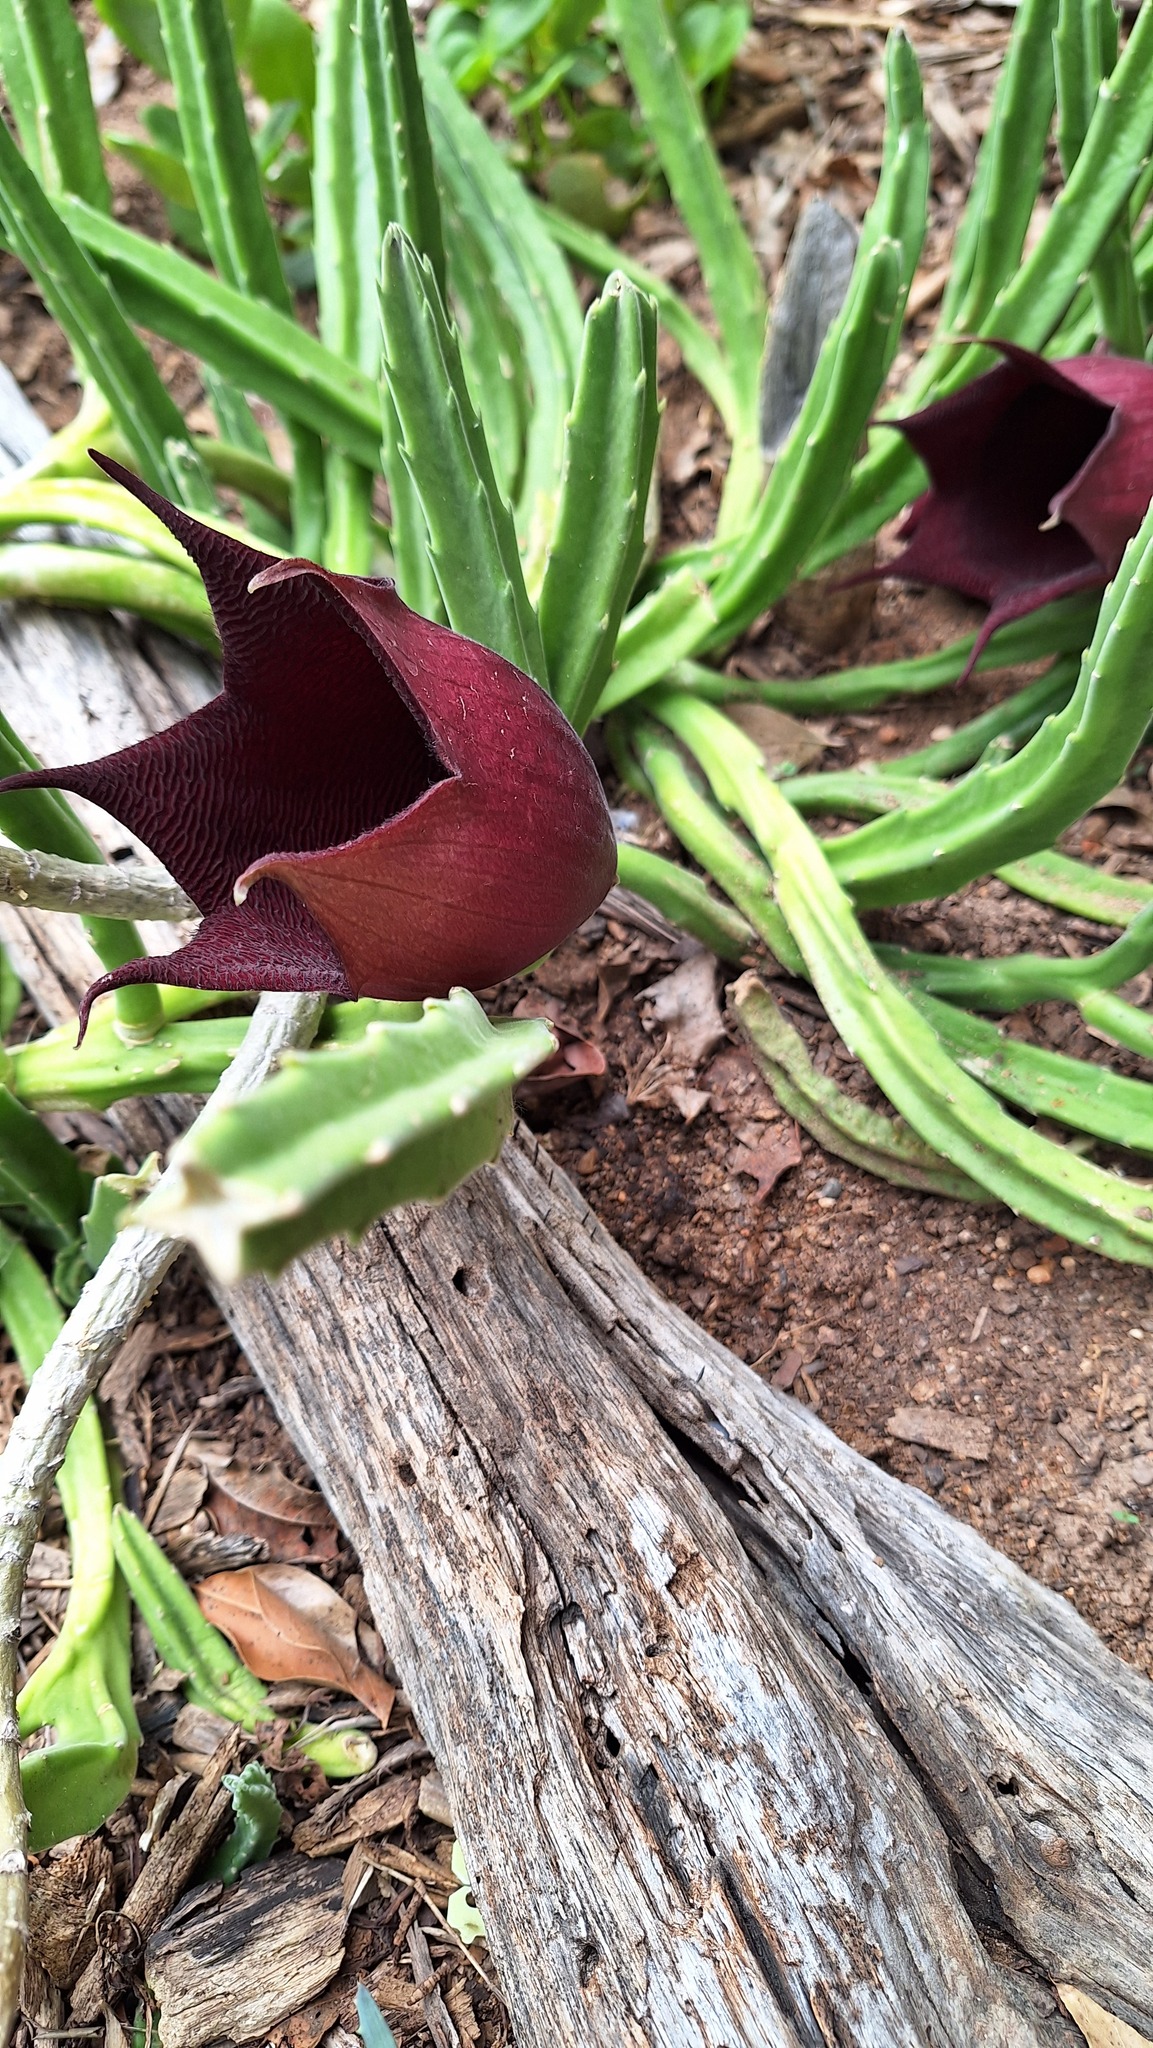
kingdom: Plantae
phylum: Tracheophyta
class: Magnoliopsida
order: Gentianales
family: Apocynaceae
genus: Ceropegia
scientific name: Ceropegia leendertziae
